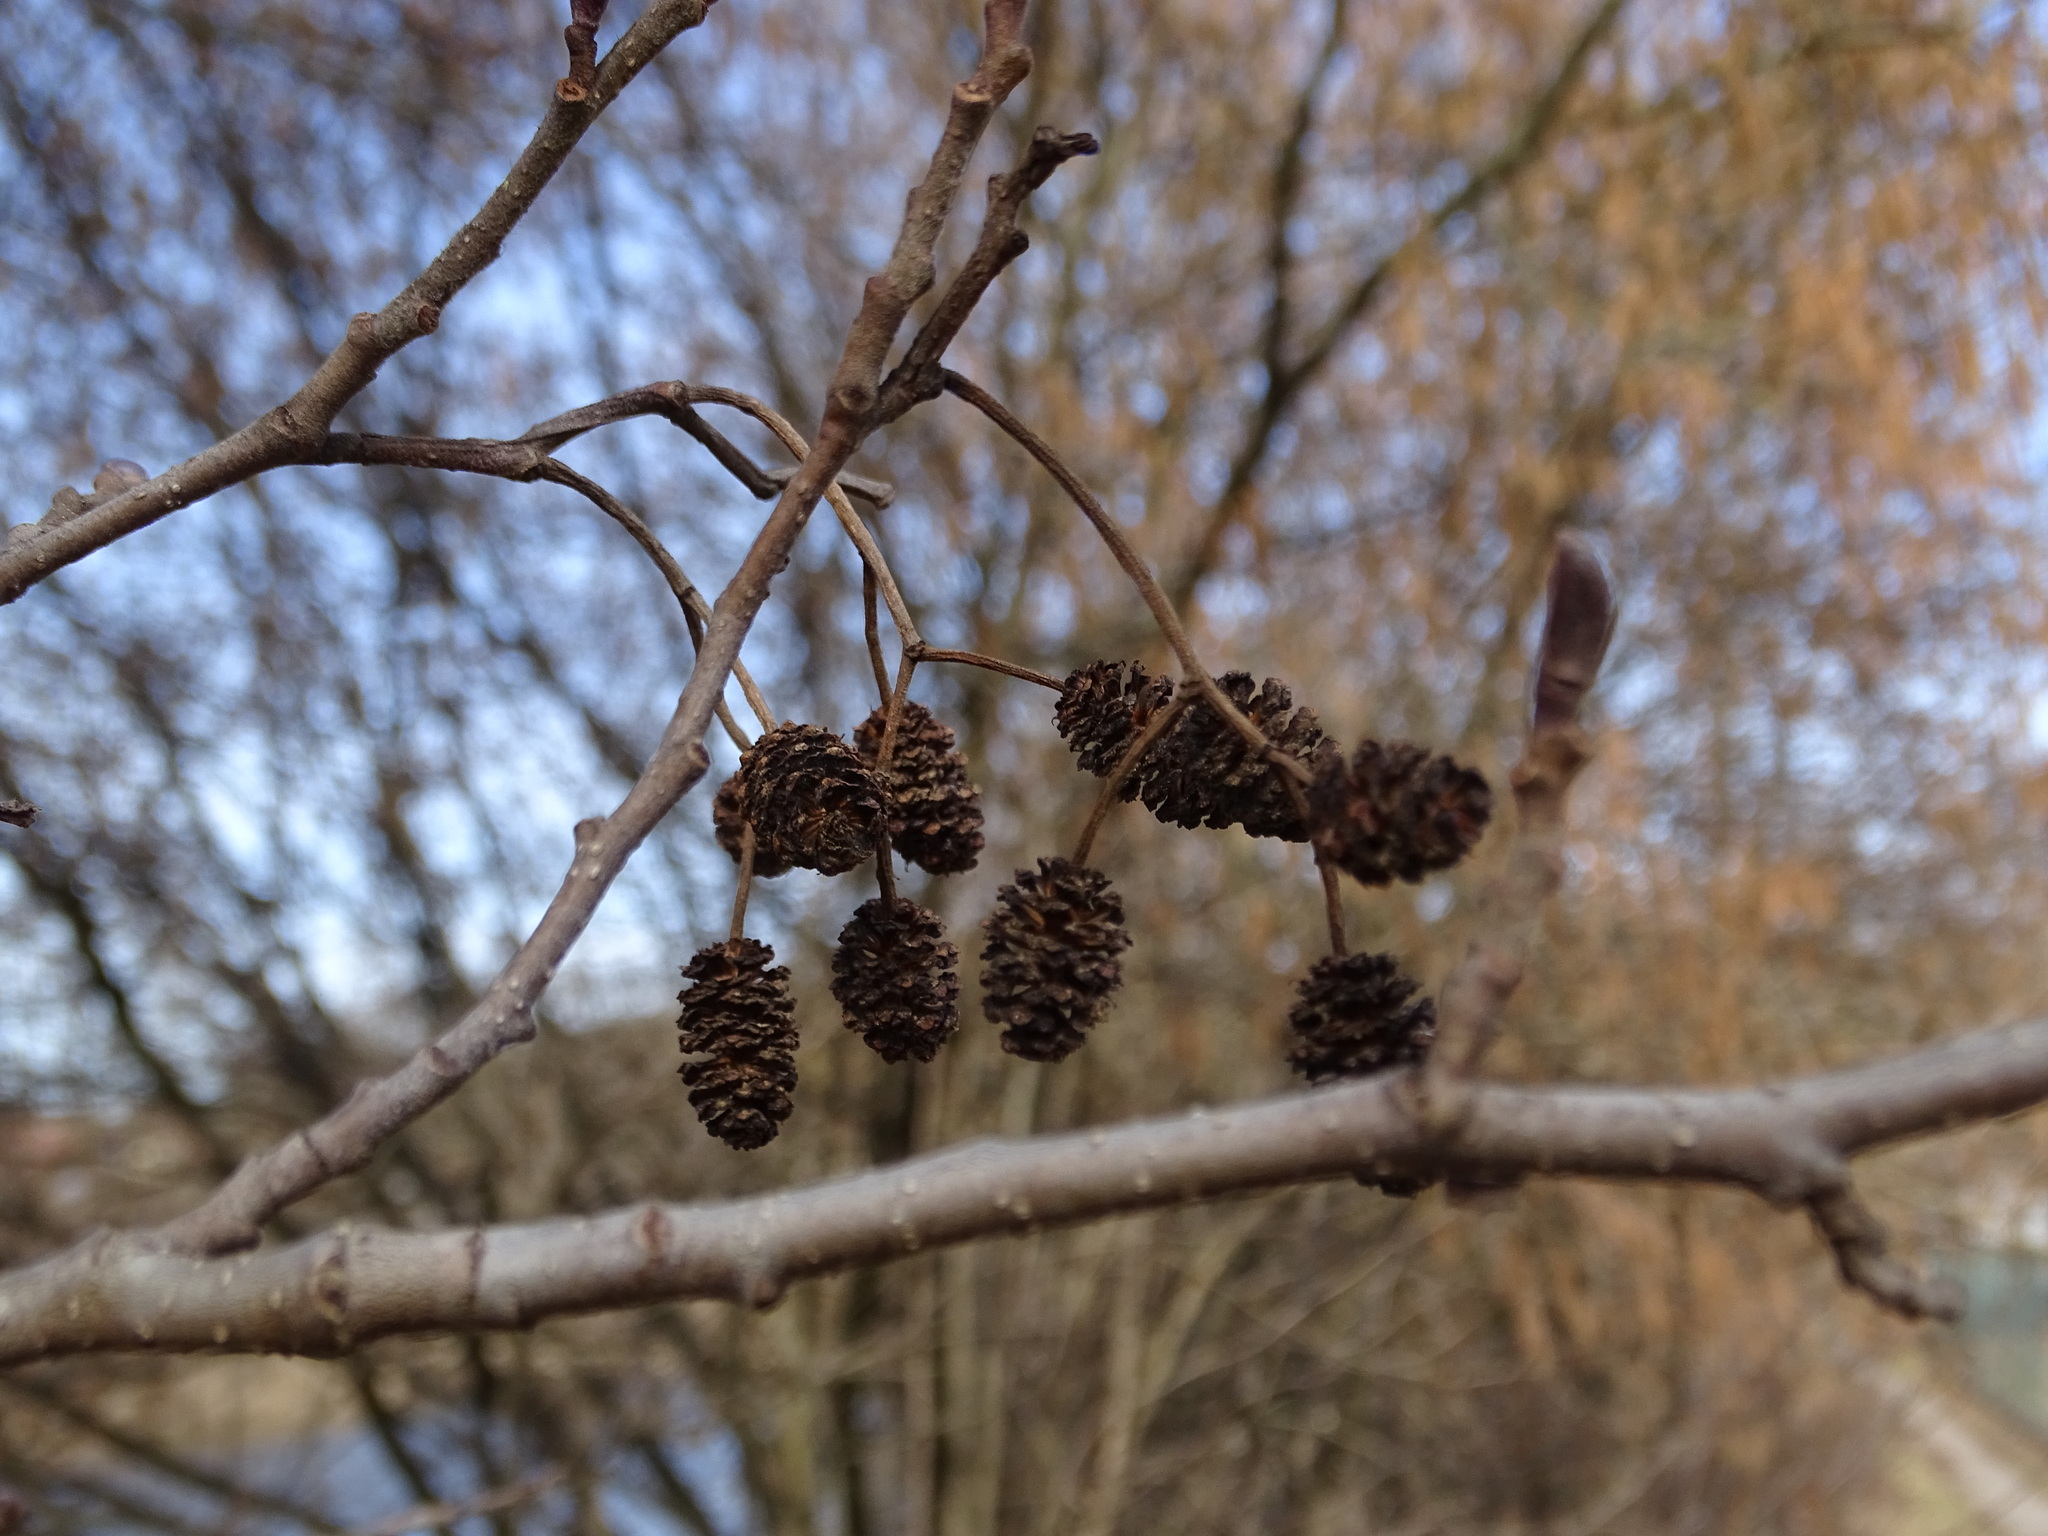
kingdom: Plantae
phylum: Tracheophyta
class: Magnoliopsida
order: Fagales
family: Betulaceae
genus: Alnus
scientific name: Alnus glutinosa
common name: Black alder
